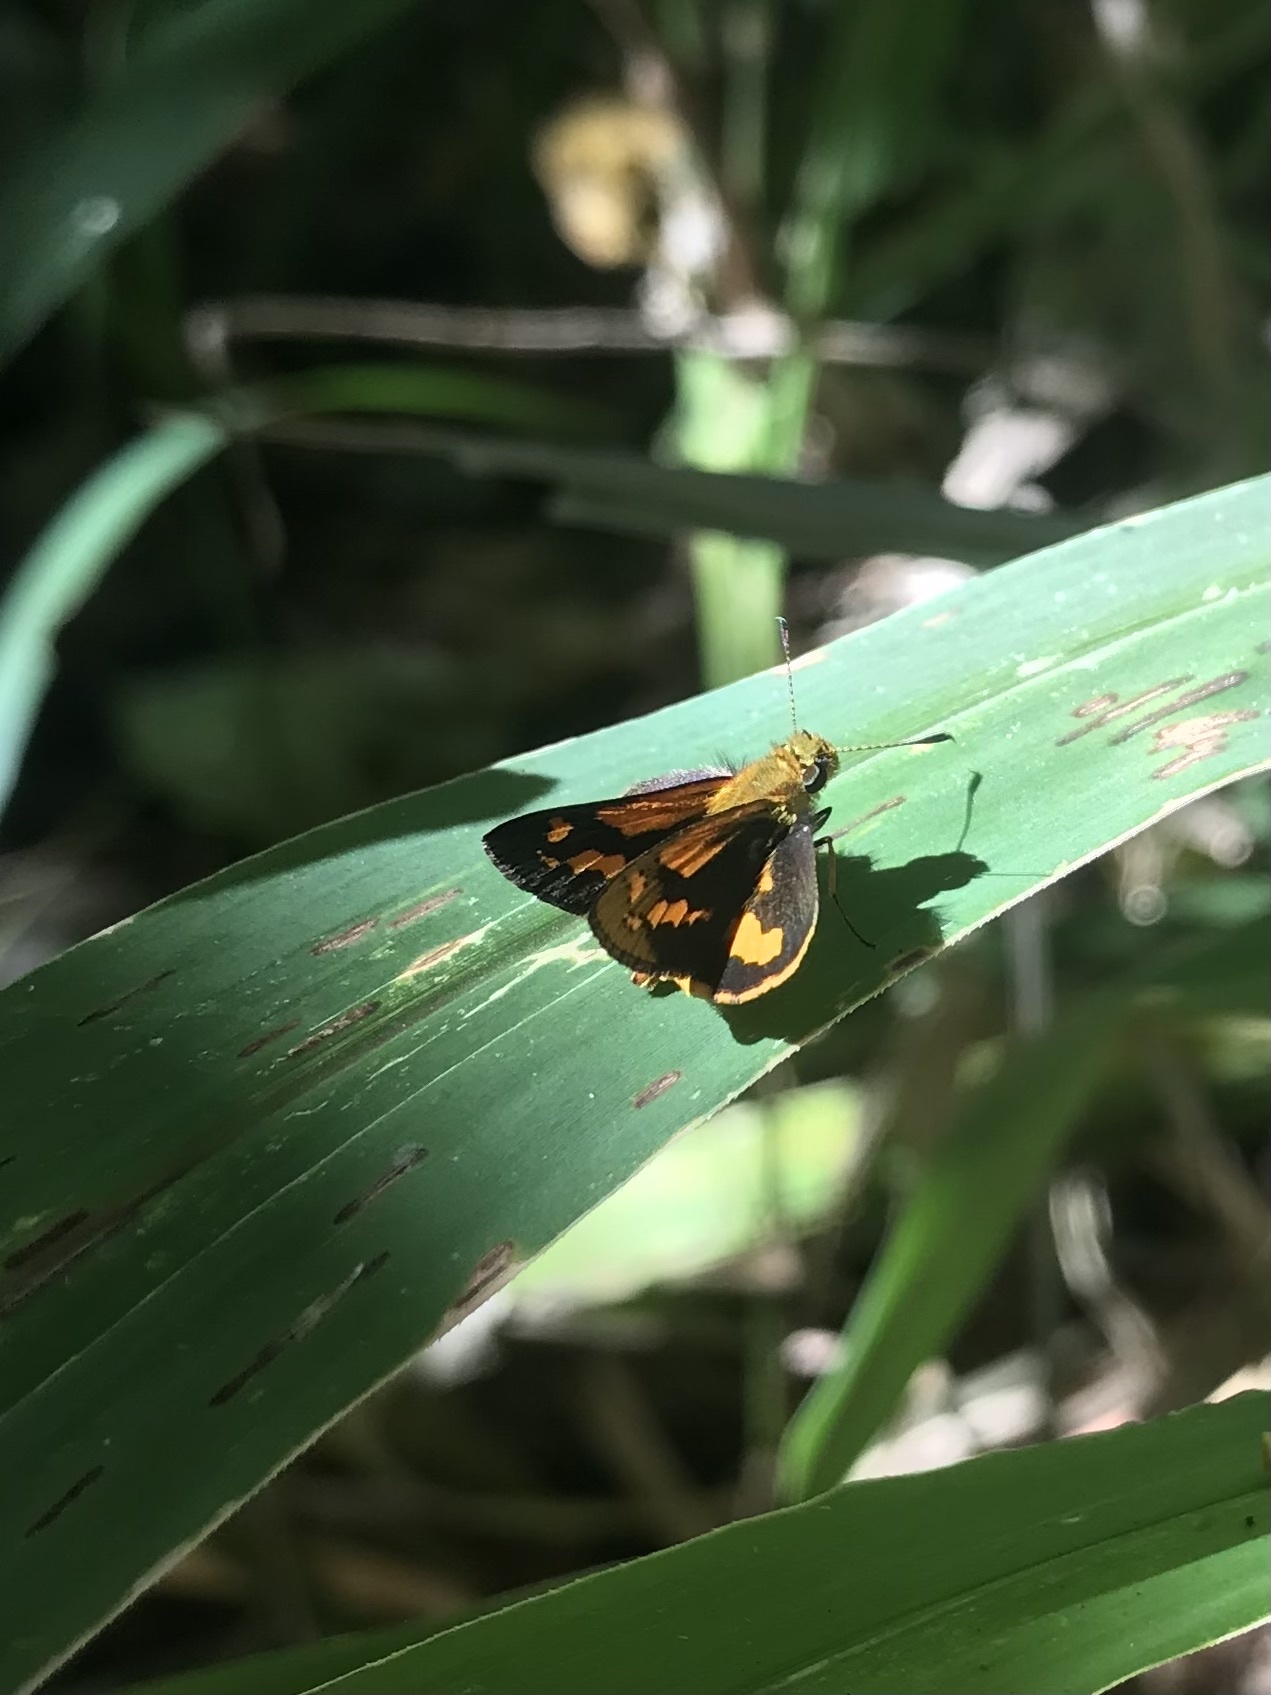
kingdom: Animalia
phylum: Arthropoda
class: Insecta
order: Lepidoptera
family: Hesperiidae
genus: Ocybadistes
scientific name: Ocybadistes ardea
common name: Dark orange dart
